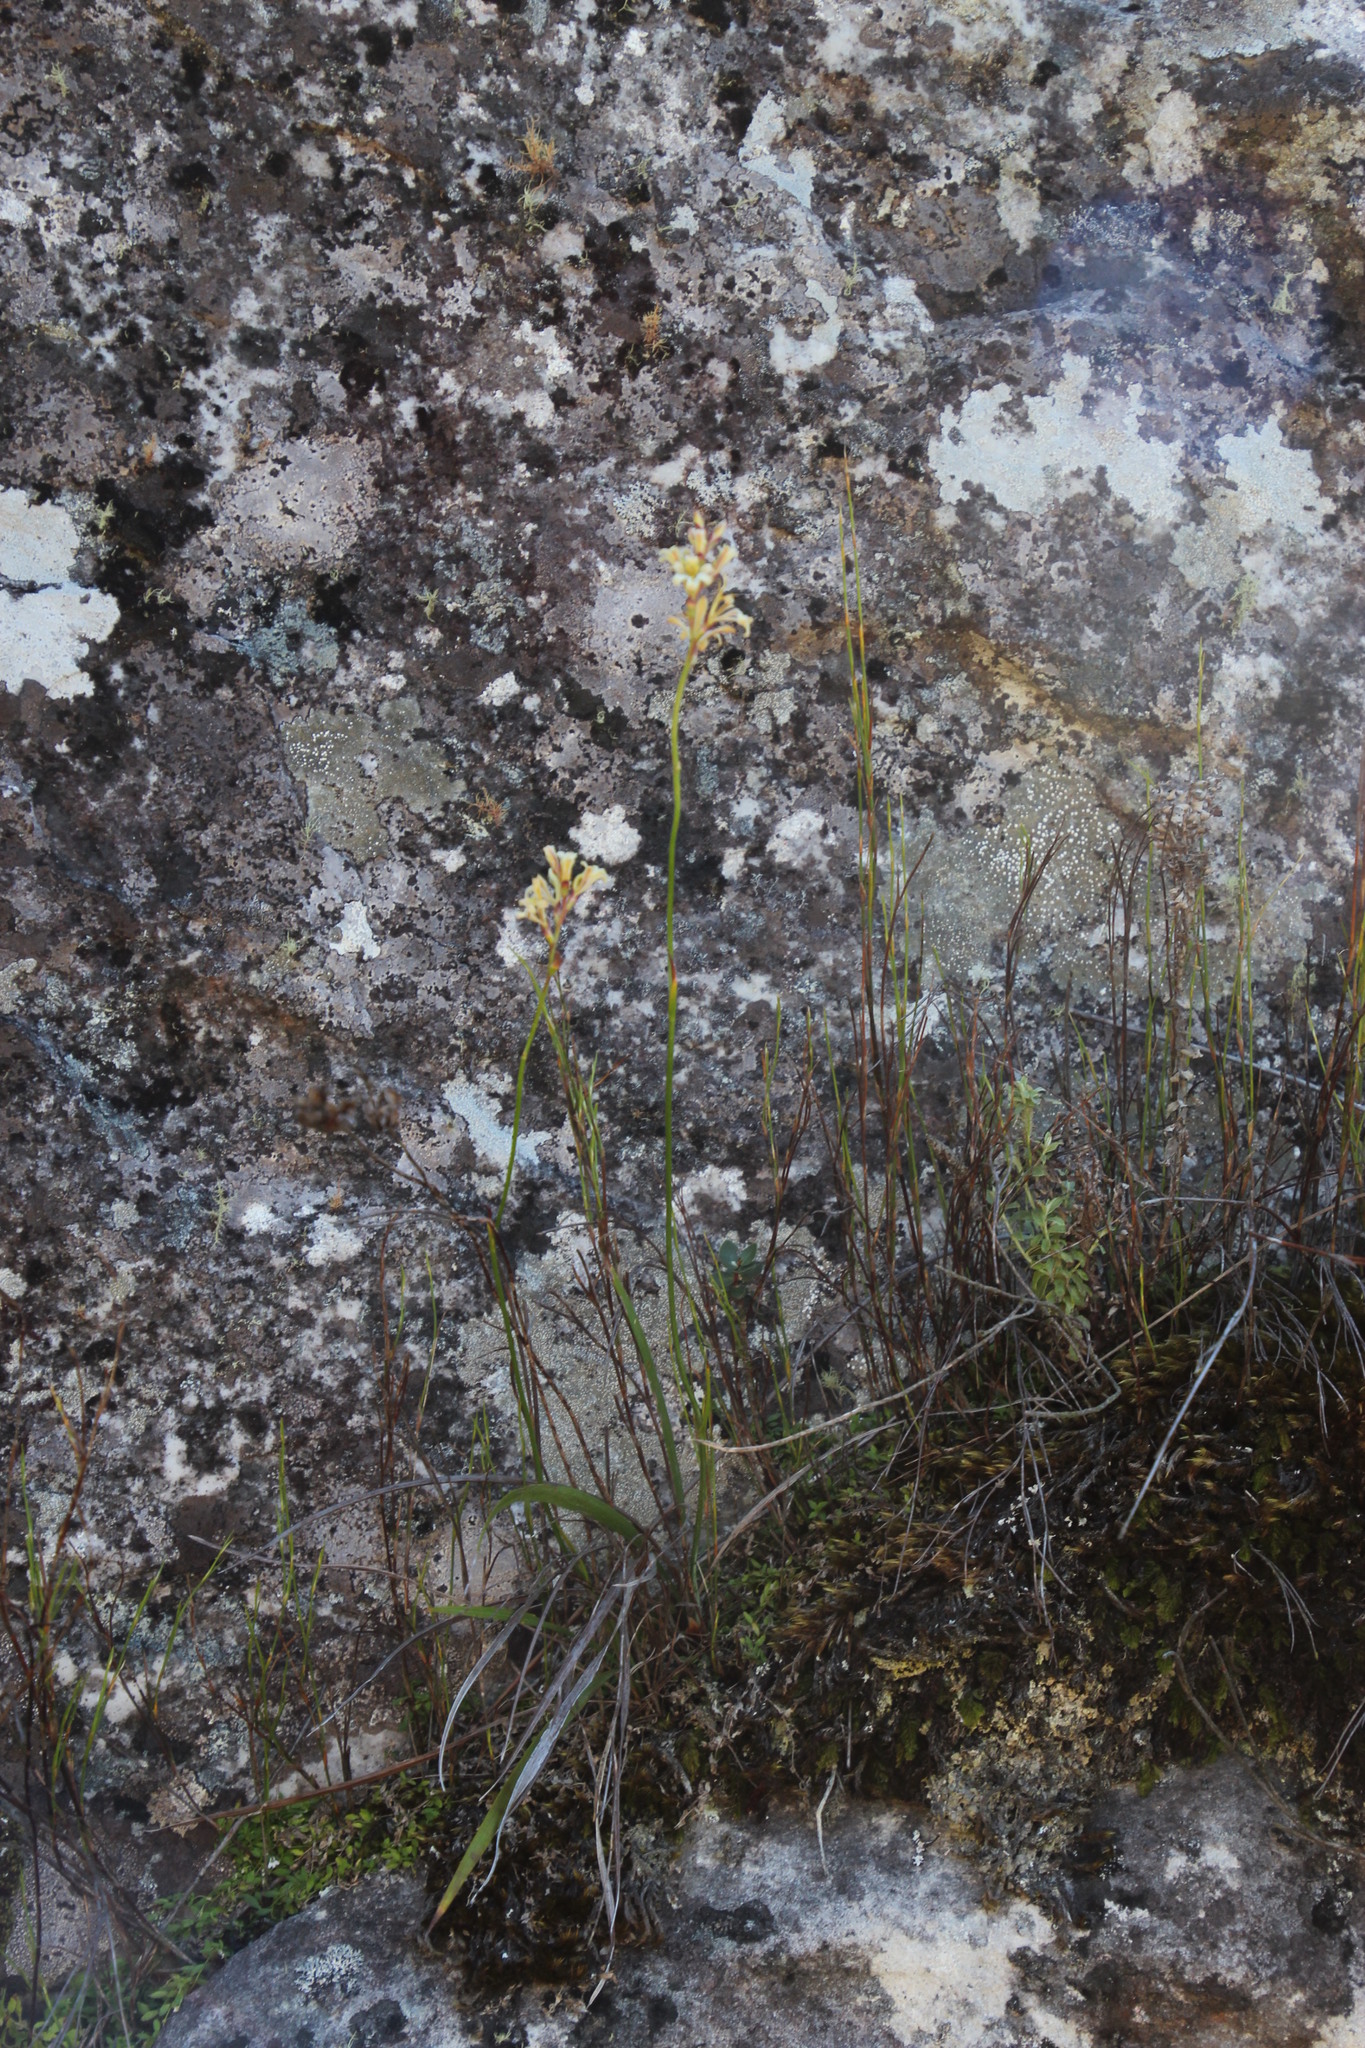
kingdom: Plantae
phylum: Tracheophyta
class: Liliopsida
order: Asparagales
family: Iridaceae
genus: Tritoniopsis
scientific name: Tritoniopsis unguicularis
